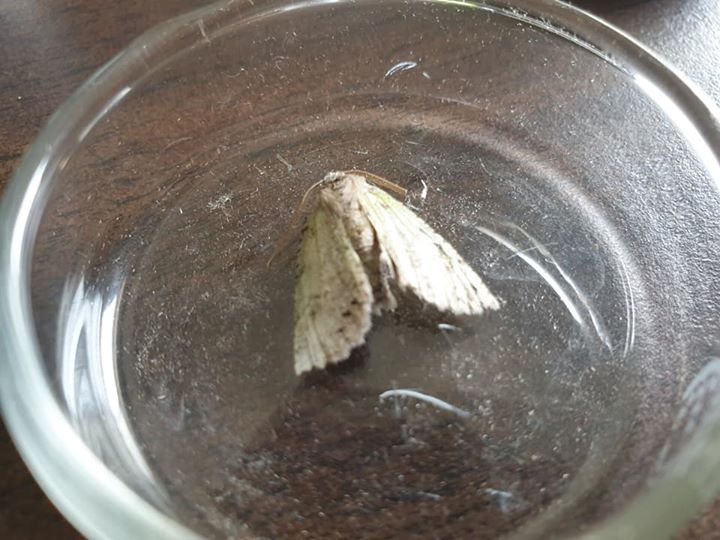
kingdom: Animalia
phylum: Arthropoda
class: Insecta
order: Lepidoptera
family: Geometridae
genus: Declana
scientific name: Declana floccosa
